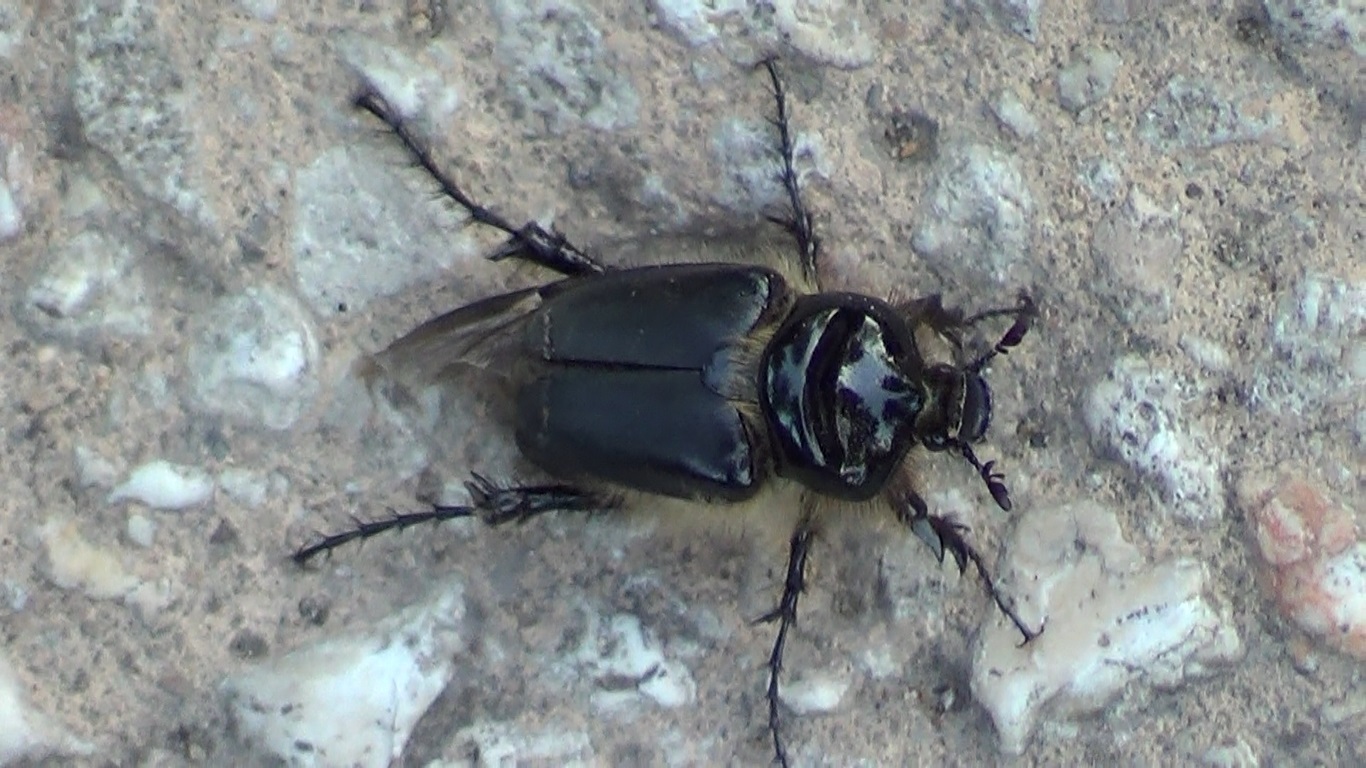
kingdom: Animalia
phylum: Arthropoda
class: Insecta
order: Coleoptera
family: Scarabaeidae
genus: Pachypus
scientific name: Pachypus caesus
